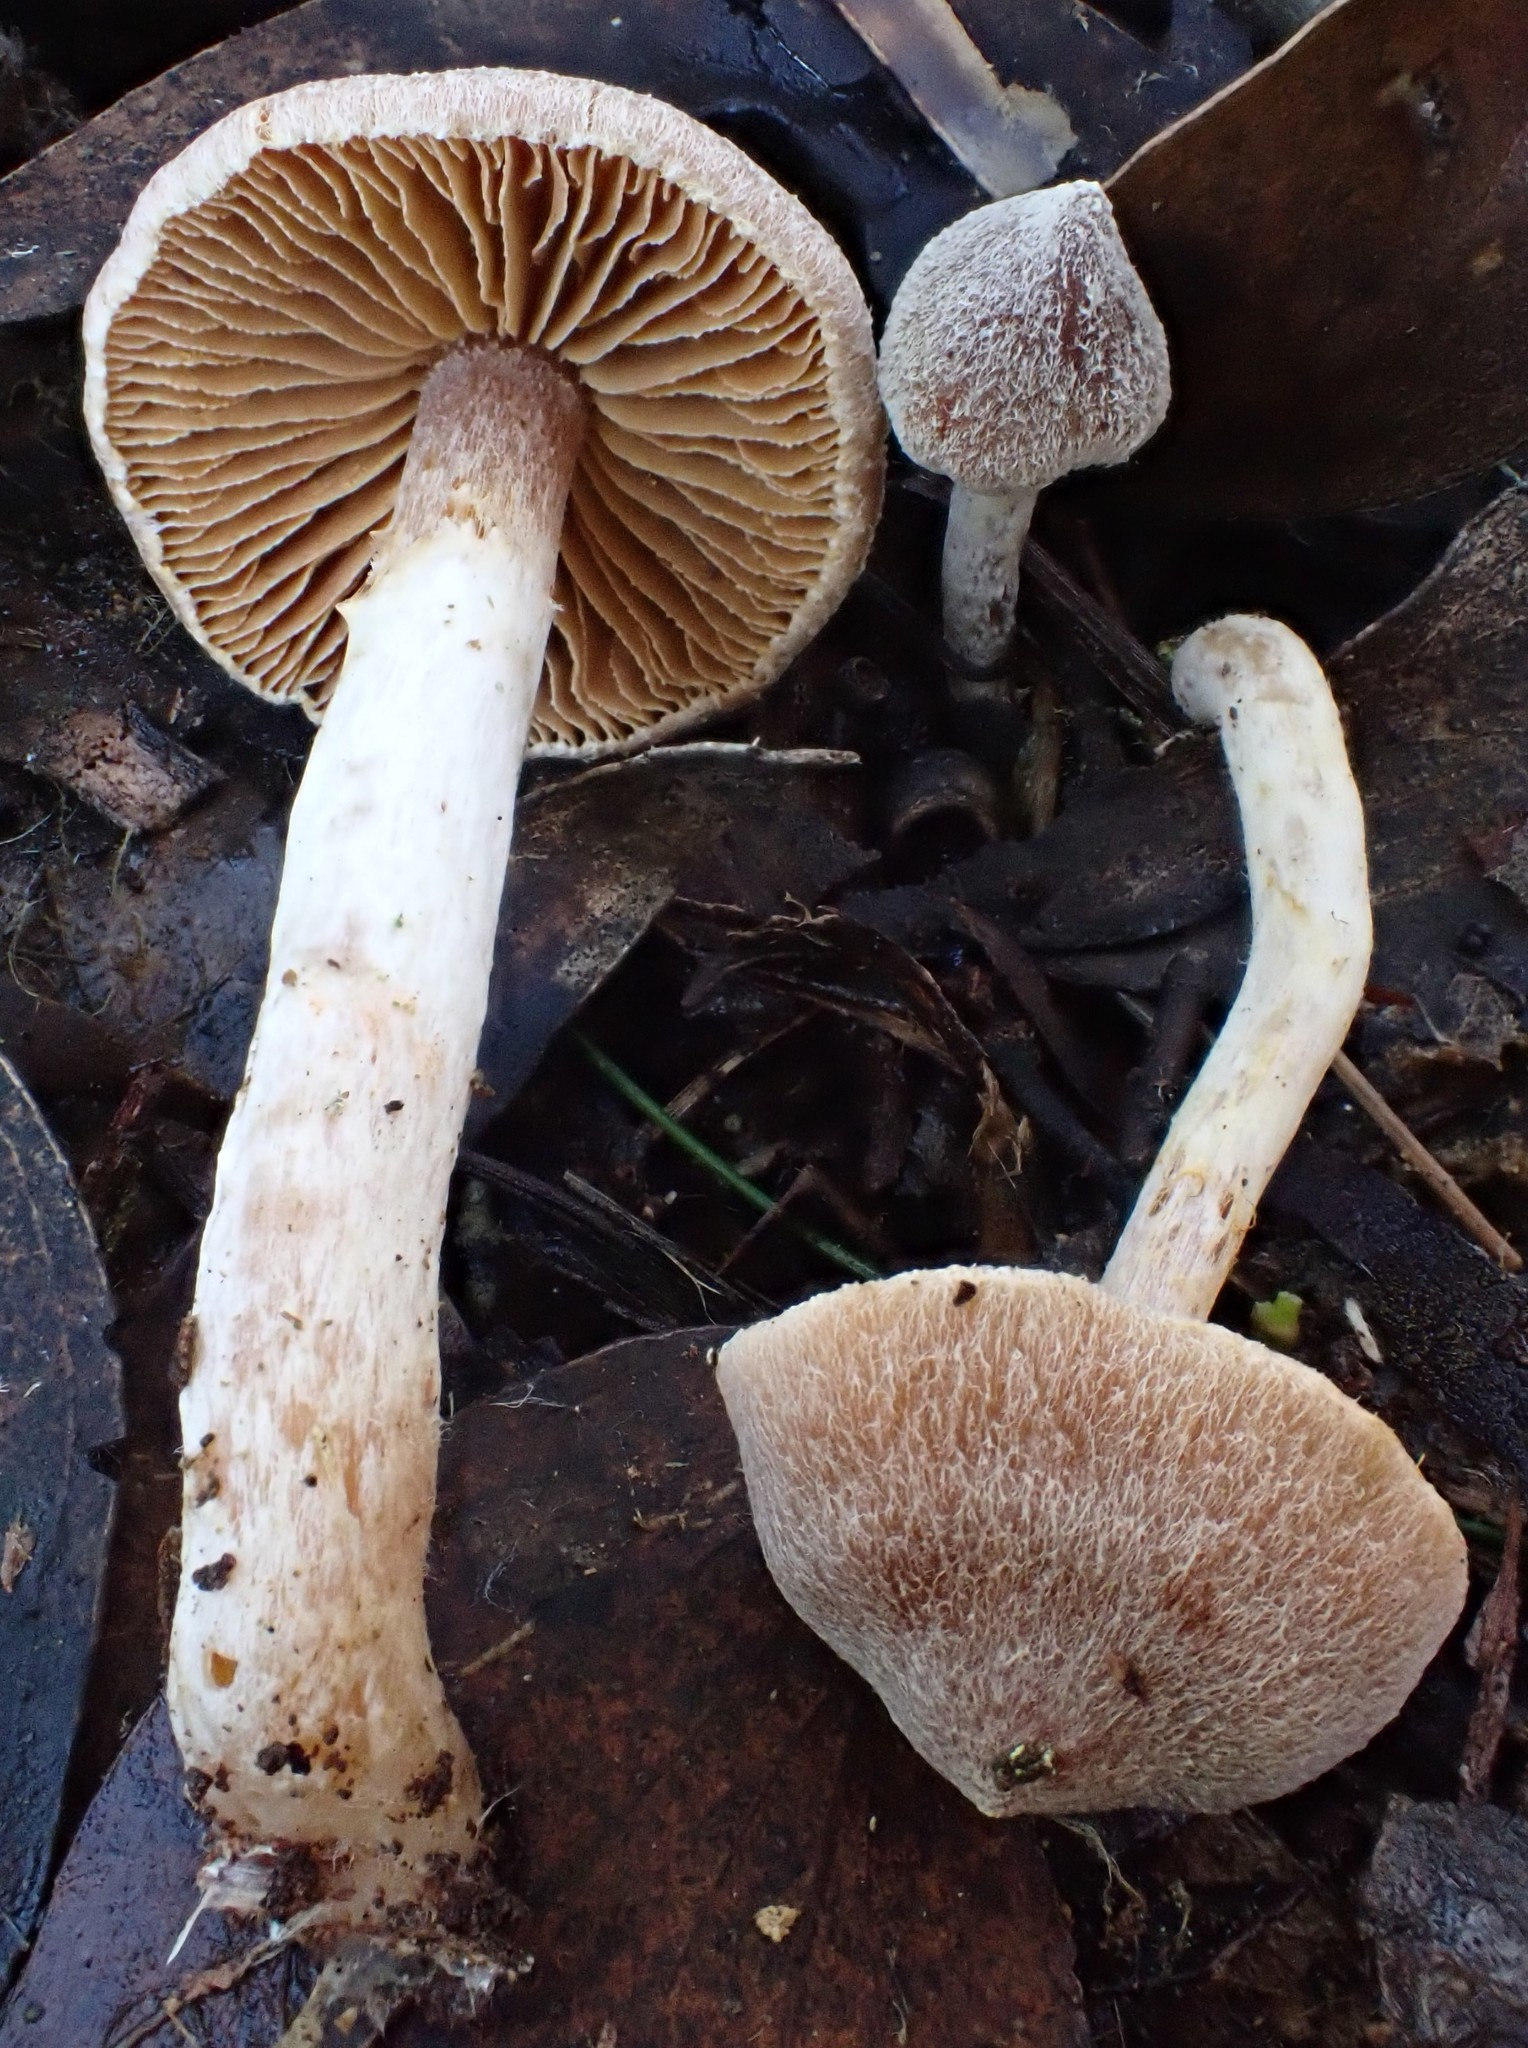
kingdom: Fungi
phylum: Basidiomycota
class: Agaricomycetes
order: Agaricales
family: Inocybaceae
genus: Inocybe
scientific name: Inocybe austrofibrillosa
